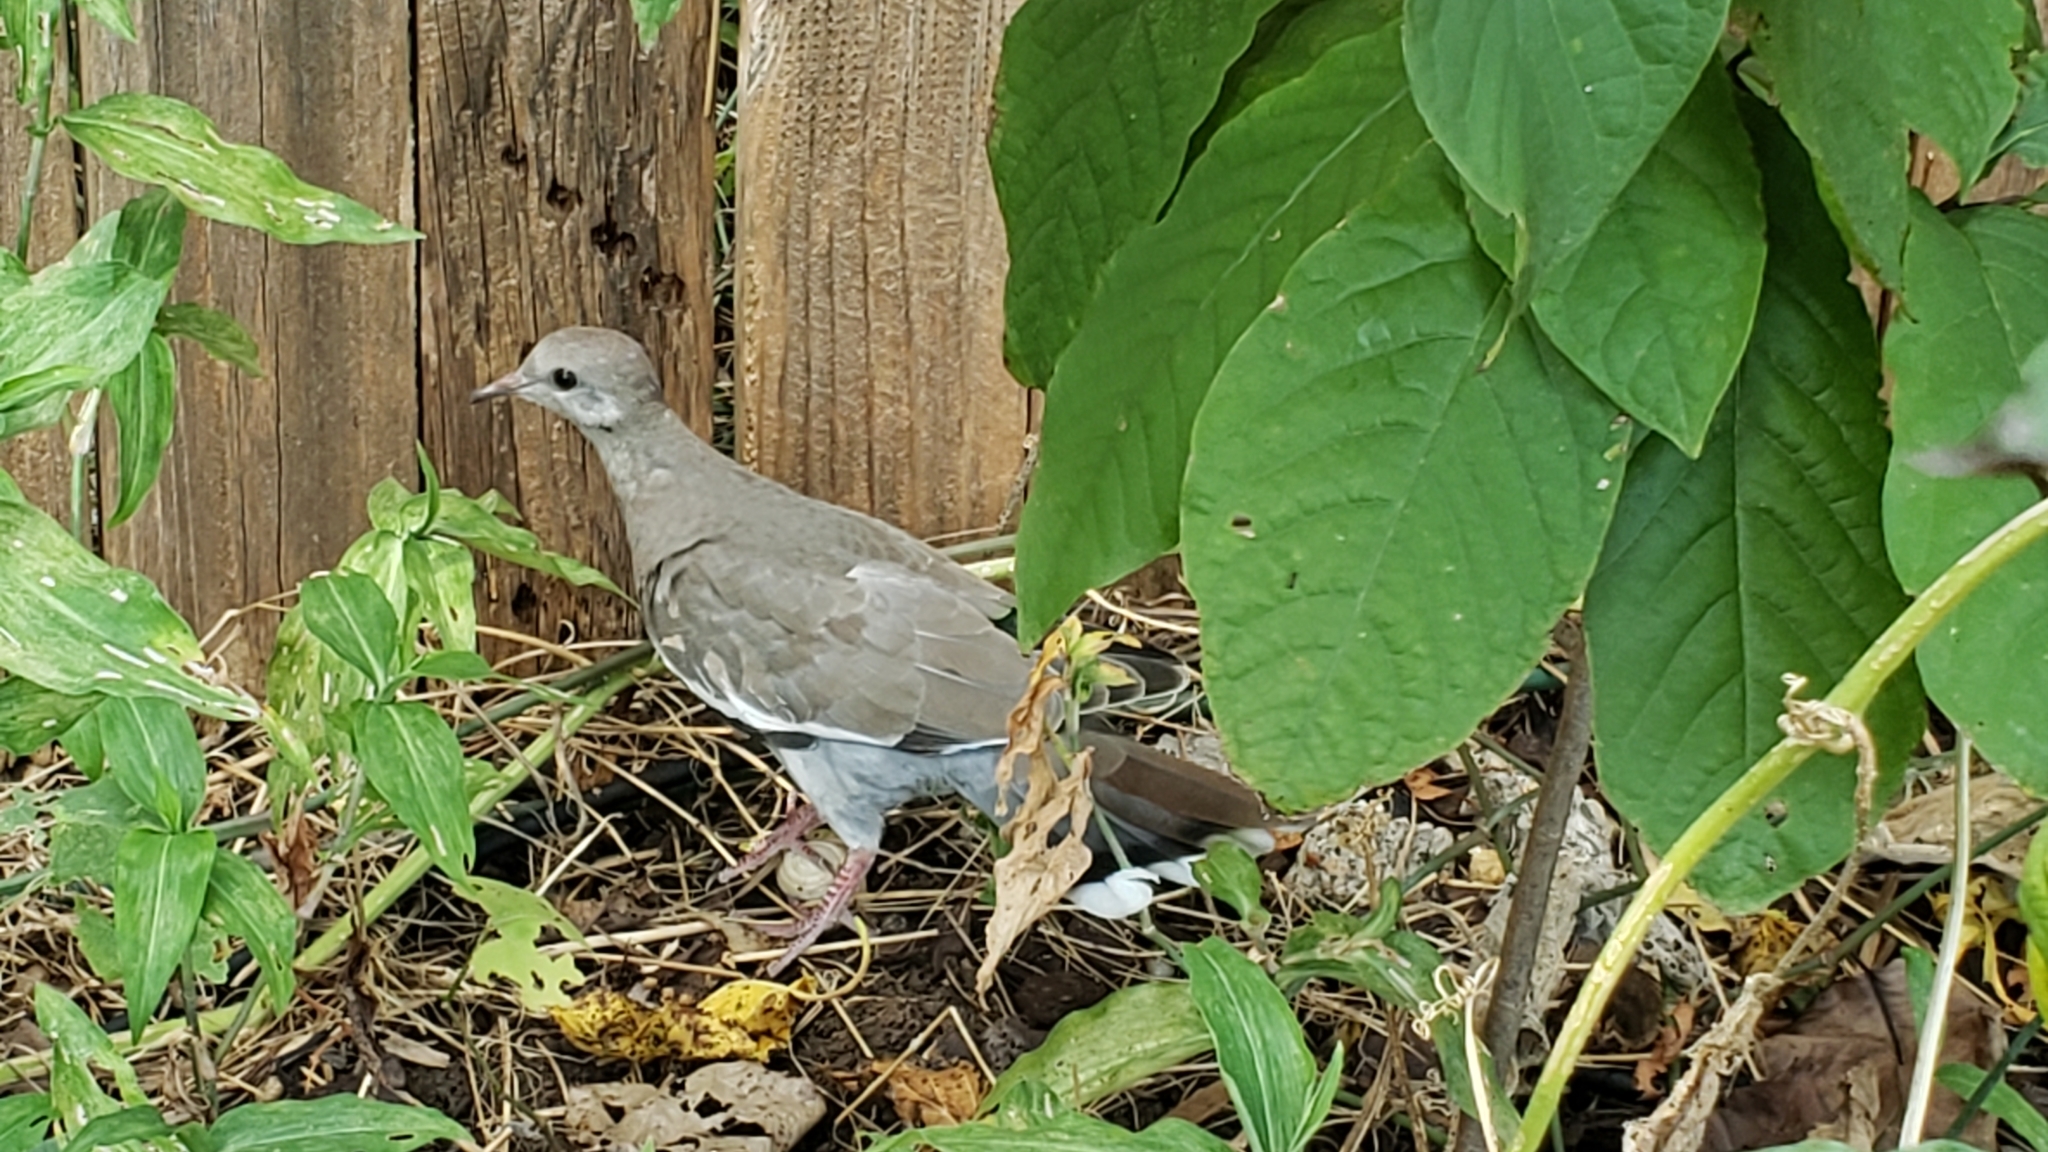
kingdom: Animalia
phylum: Chordata
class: Aves
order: Columbiformes
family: Columbidae
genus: Zenaida
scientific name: Zenaida asiatica
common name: White-winged dove
